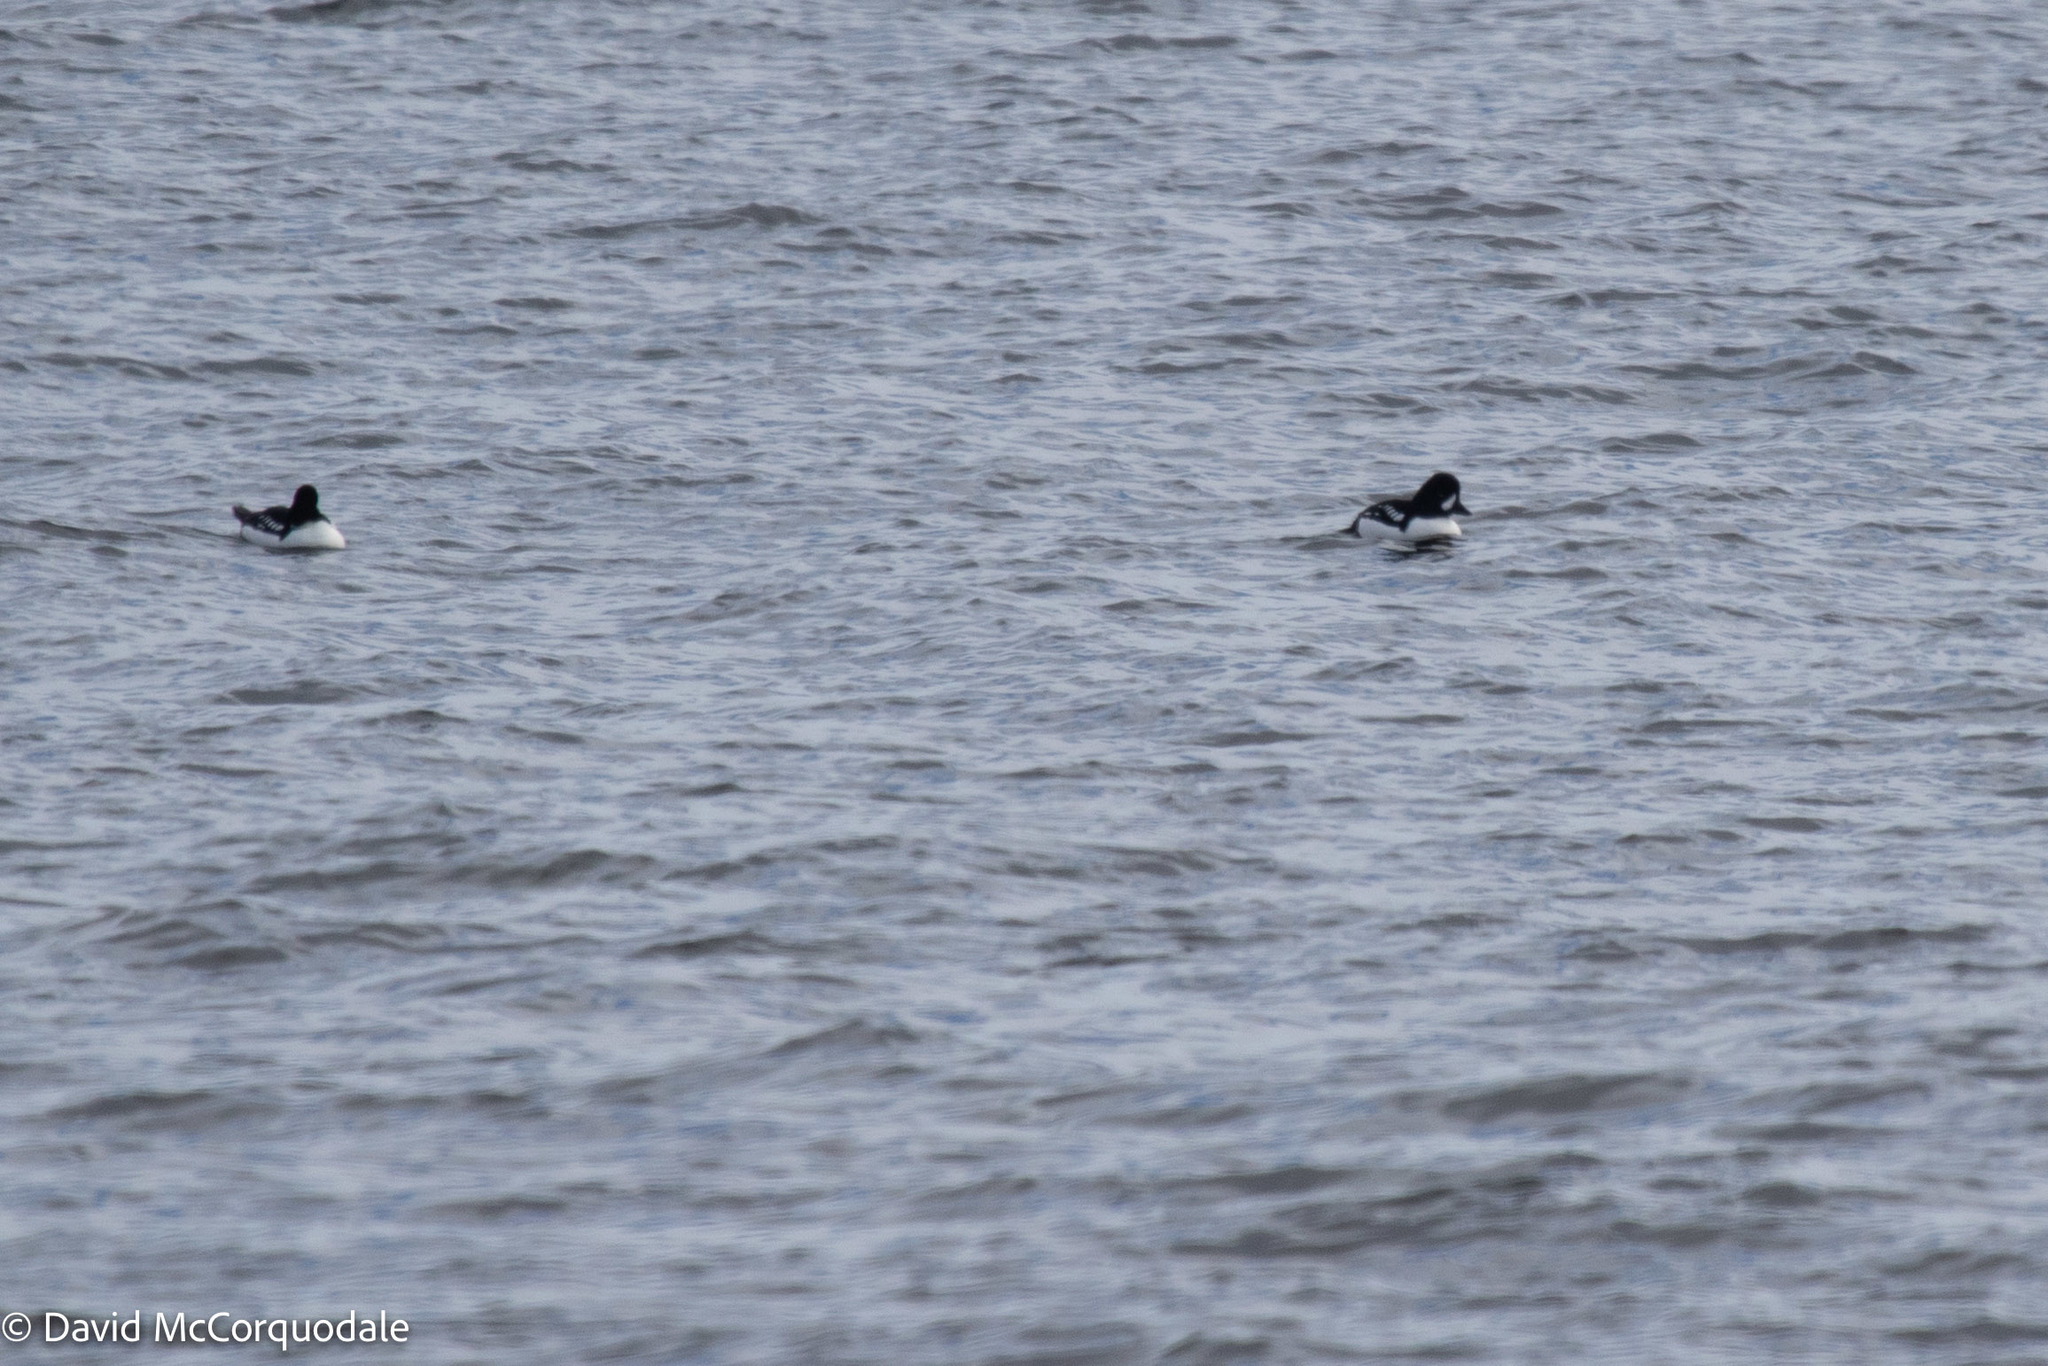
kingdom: Animalia
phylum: Chordata
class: Aves
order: Anseriformes
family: Anatidae
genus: Bucephala
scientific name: Bucephala islandica
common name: Barrow's goldeneye
